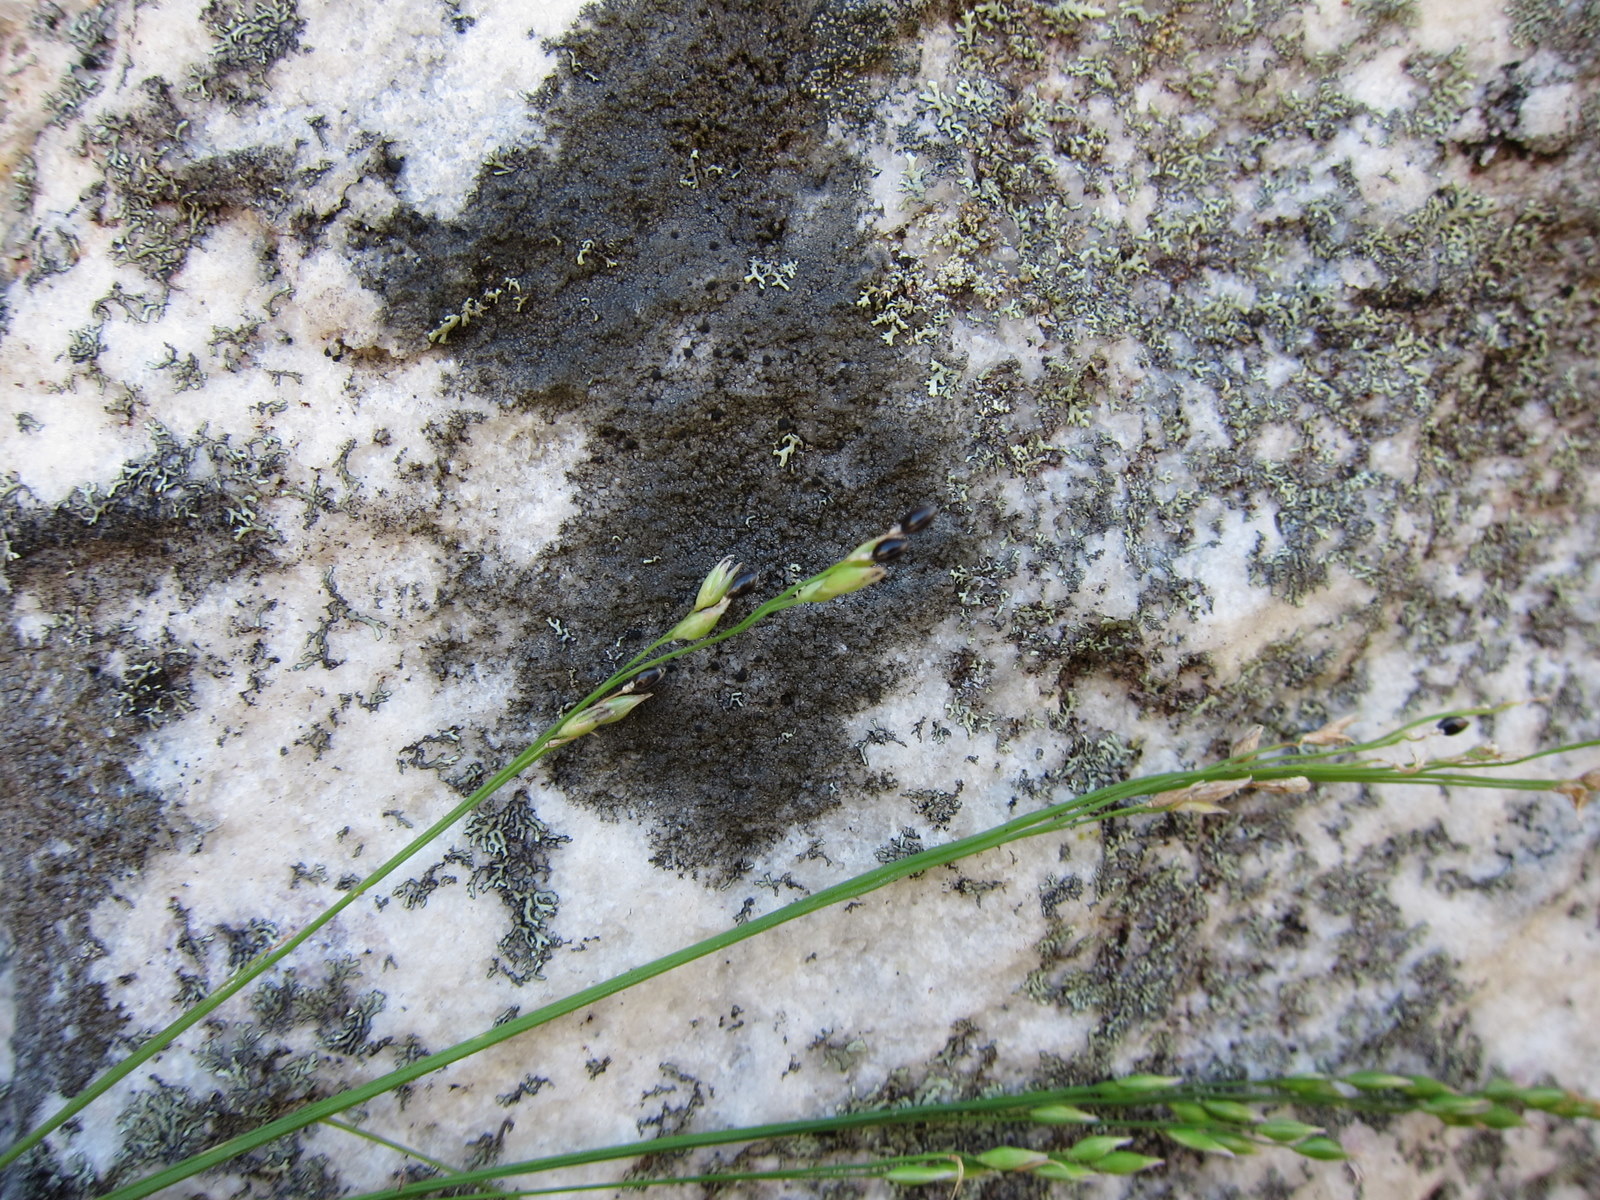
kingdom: Plantae
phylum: Tracheophyta
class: Liliopsida
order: Poales
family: Poaceae
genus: Panicum
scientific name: Panicum perrieri
